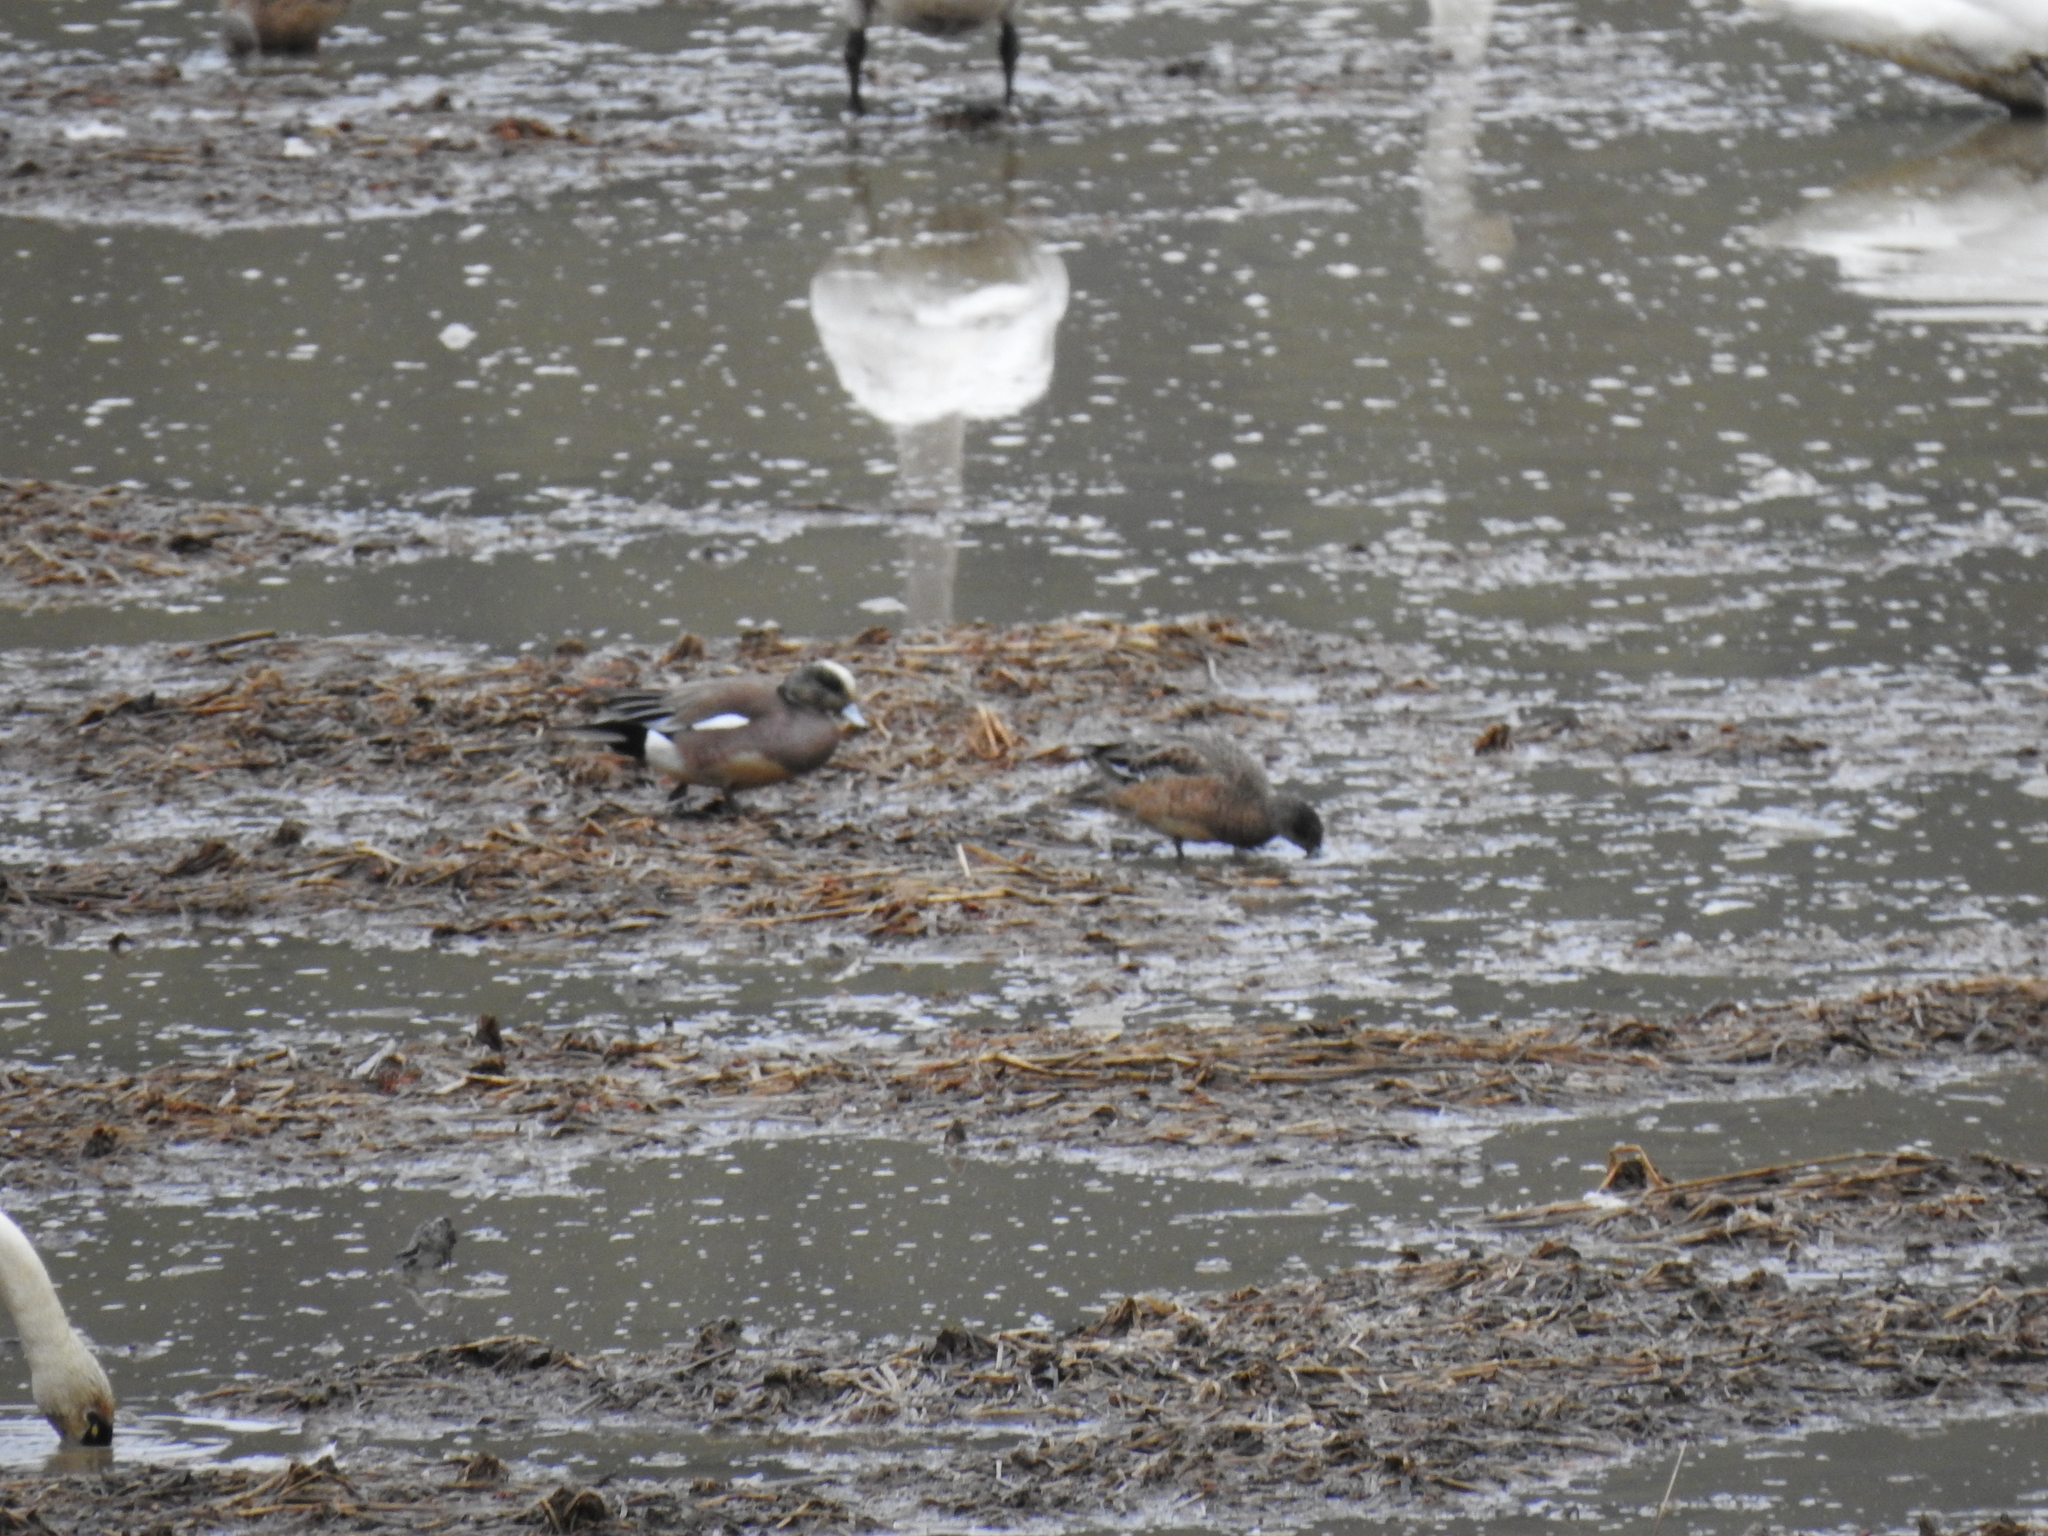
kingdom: Animalia
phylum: Chordata
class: Aves
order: Anseriformes
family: Anatidae
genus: Mareca
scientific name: Mareca americana
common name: American wigeon
